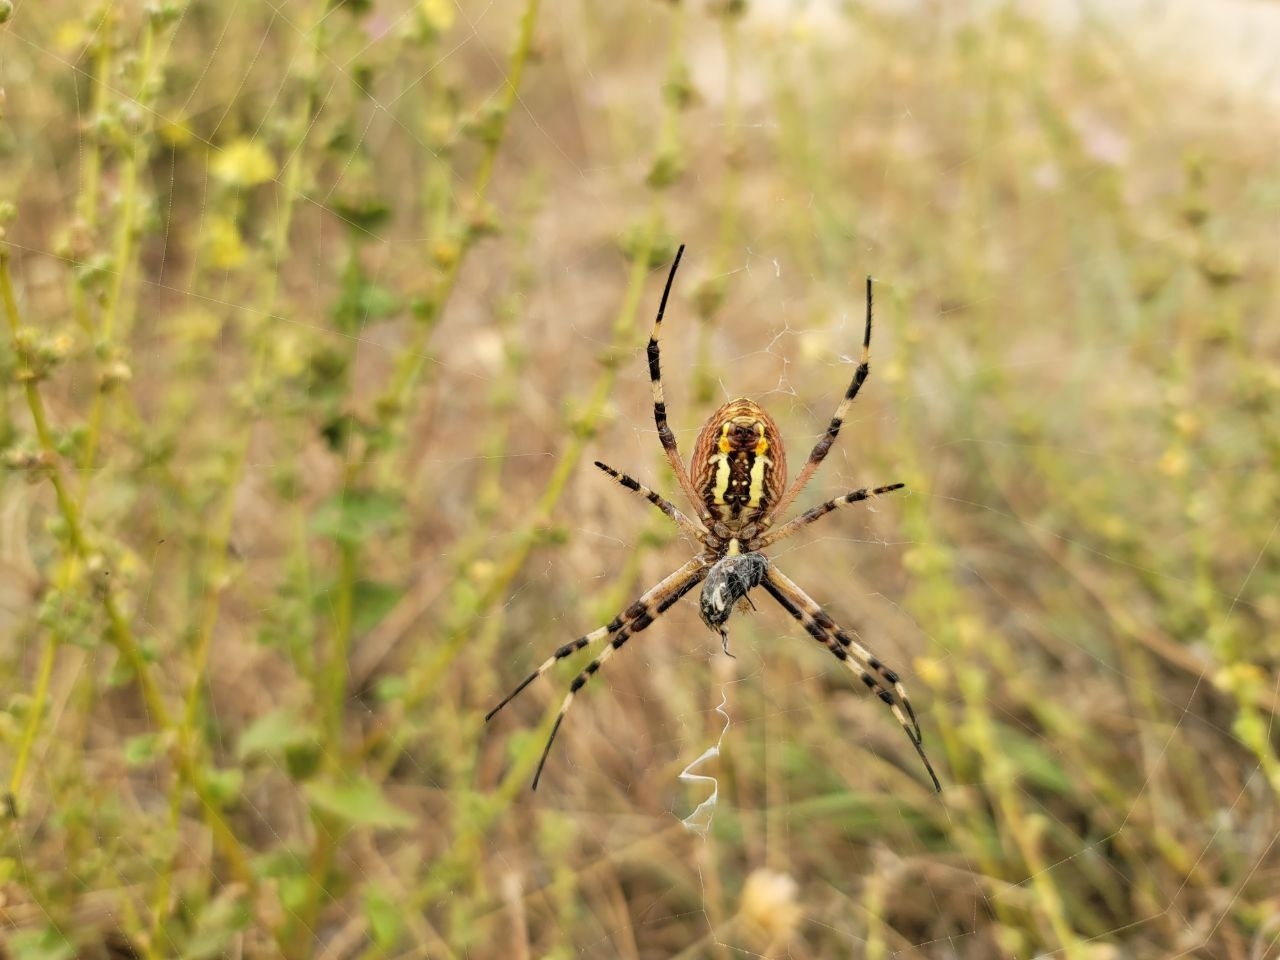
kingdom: Animalia
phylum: Arthropoda
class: Arachnida
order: Araneae
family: Araneidae
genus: Argiope
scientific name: Argiope bruennichi
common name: Wasp spider
